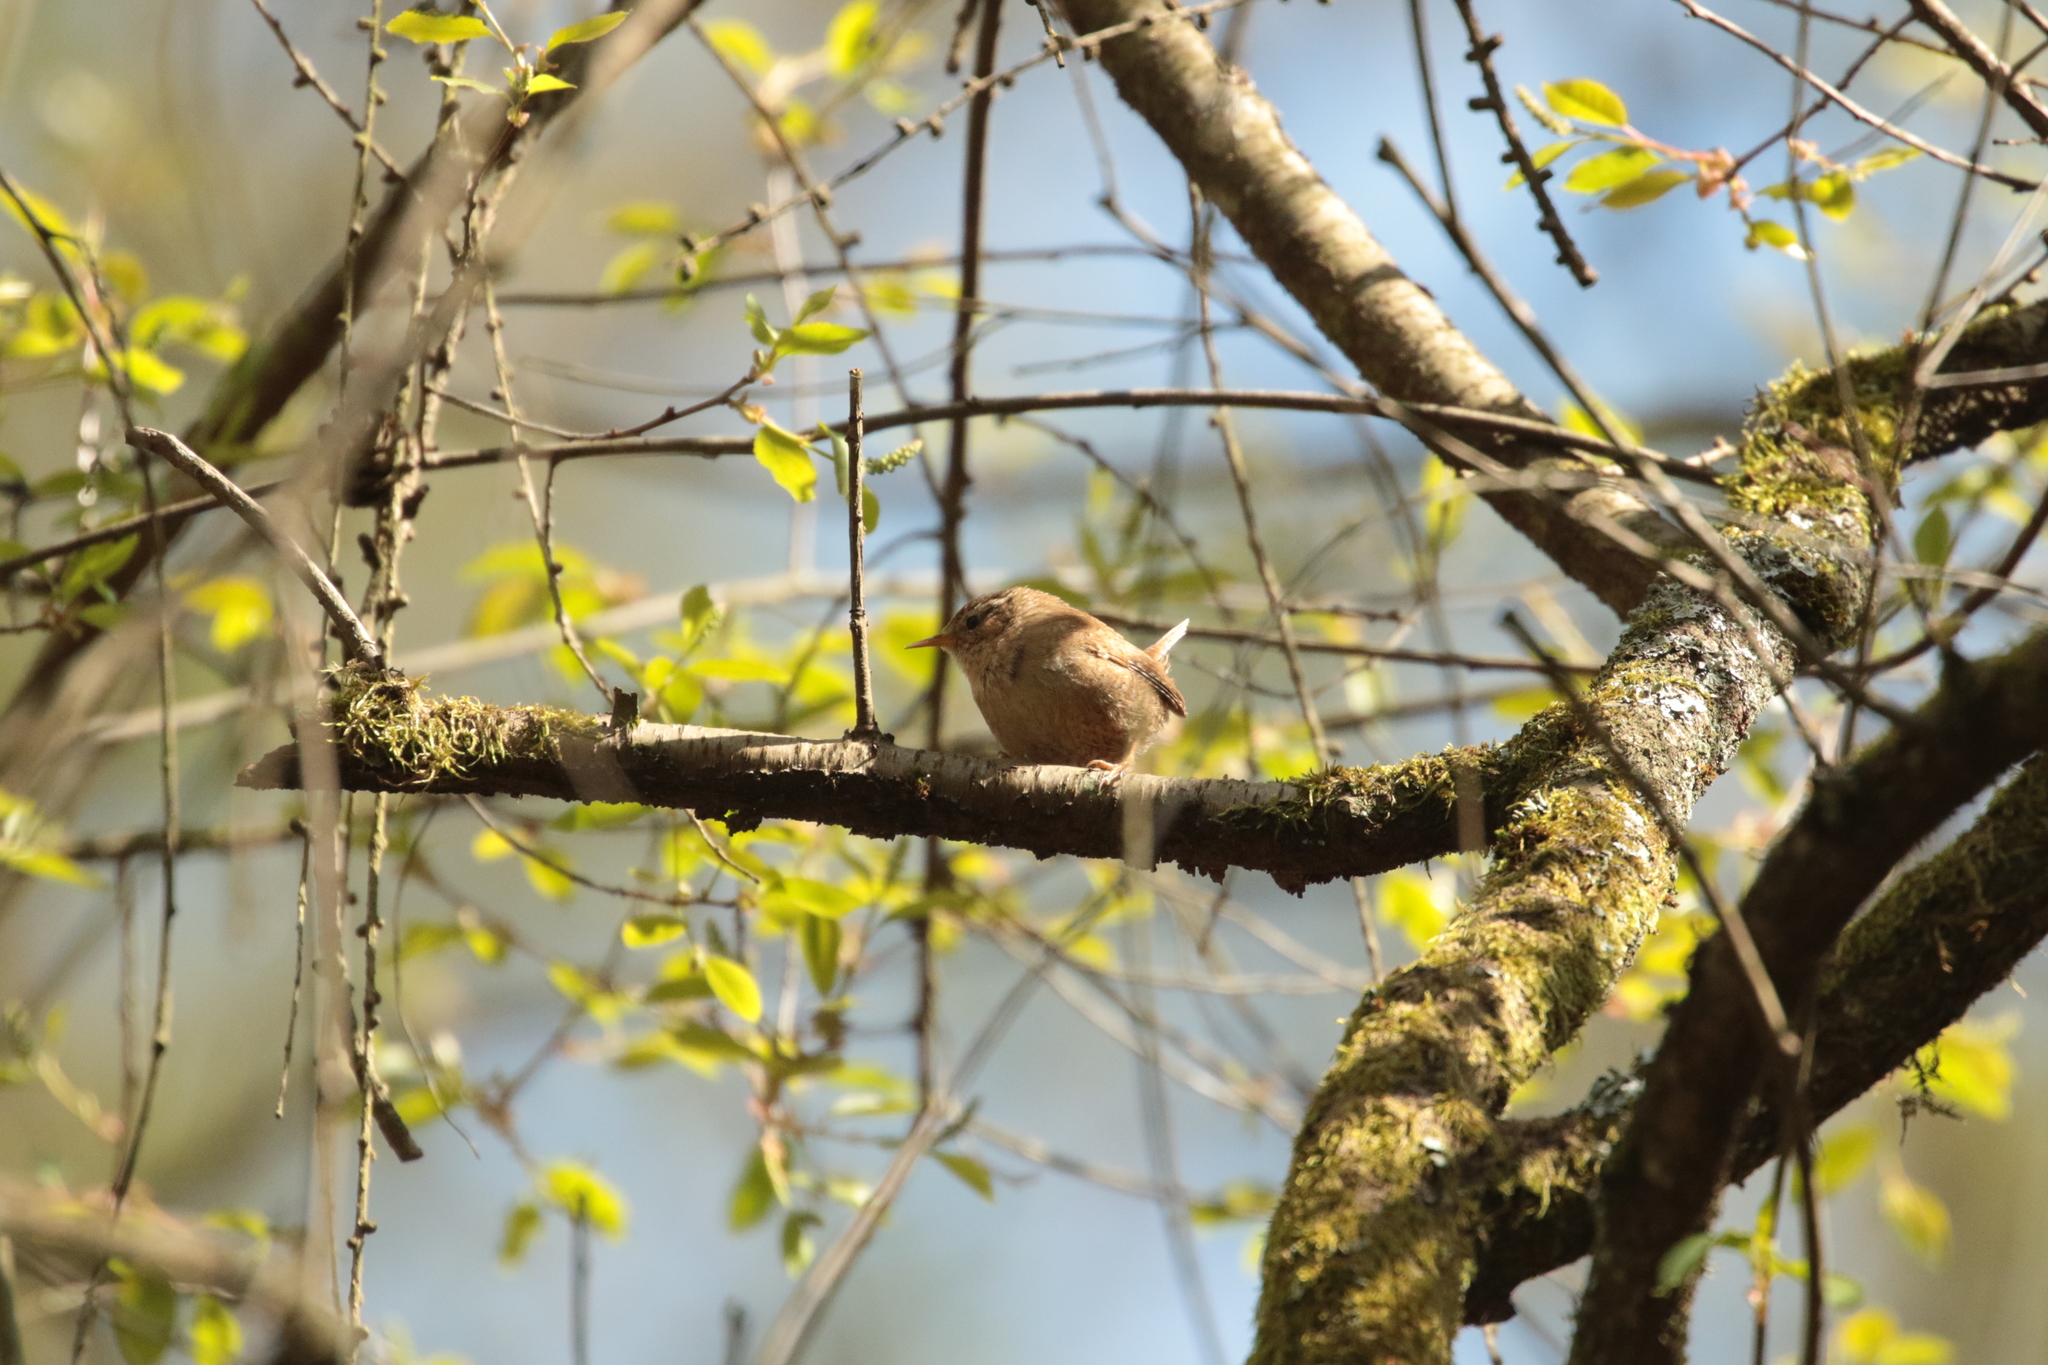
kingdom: Animalia
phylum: Chordata
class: Aves
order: Passeriformes
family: Troglodytidae
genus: Troglodytes
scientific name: Troglodytes troglodytes
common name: Eurasian wren
